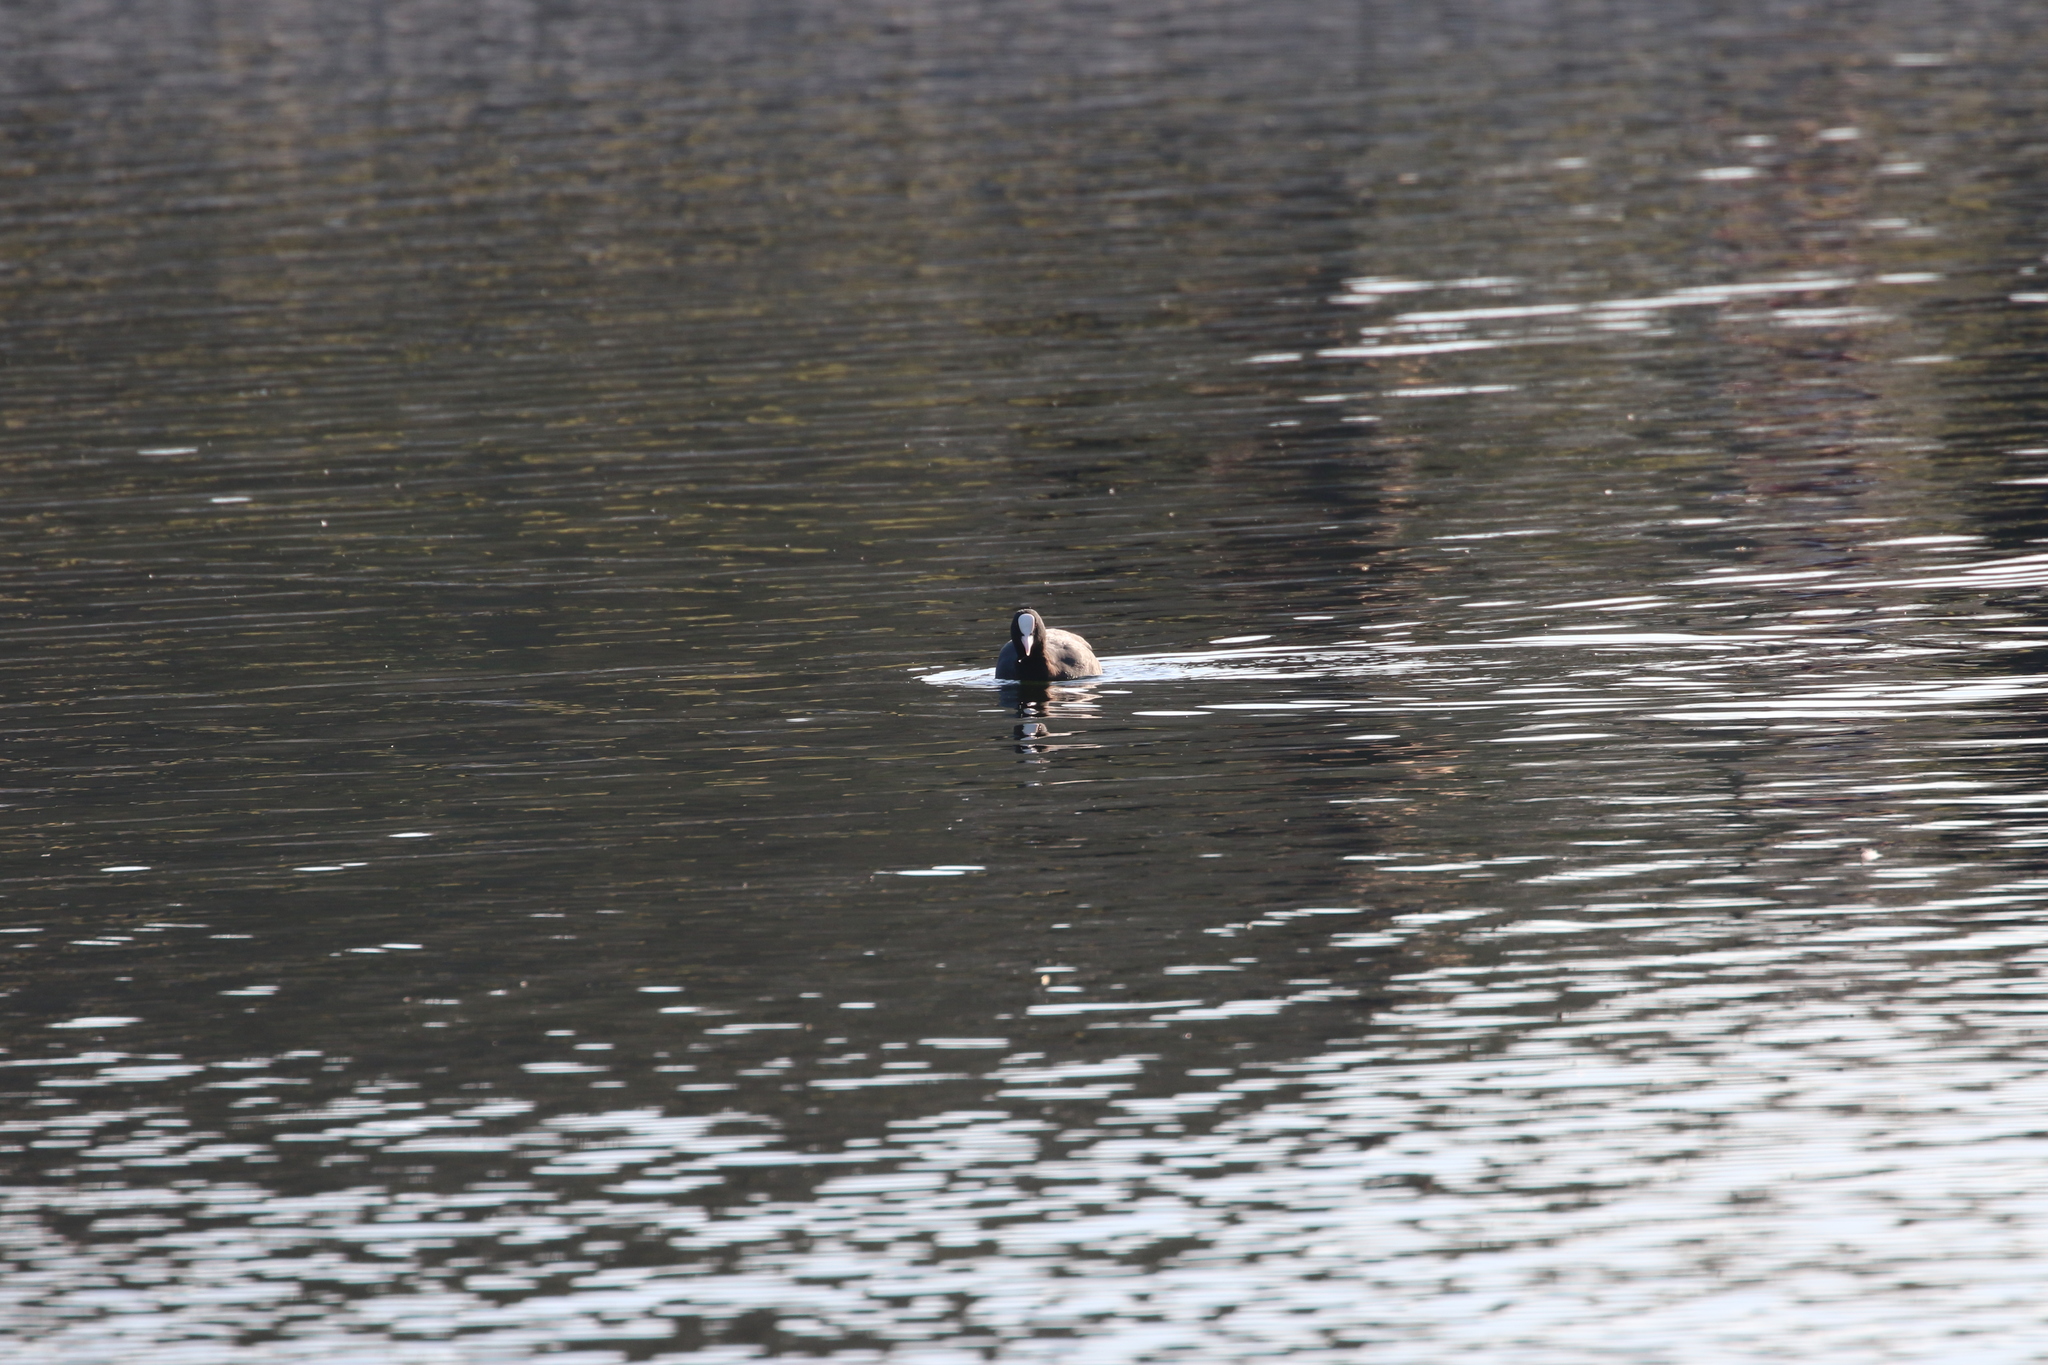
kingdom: Animalia
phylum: Chordata
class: Aves
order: Gruiformes
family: Rallidae
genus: Fulica
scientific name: Fulica atra
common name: Eurasian coot
